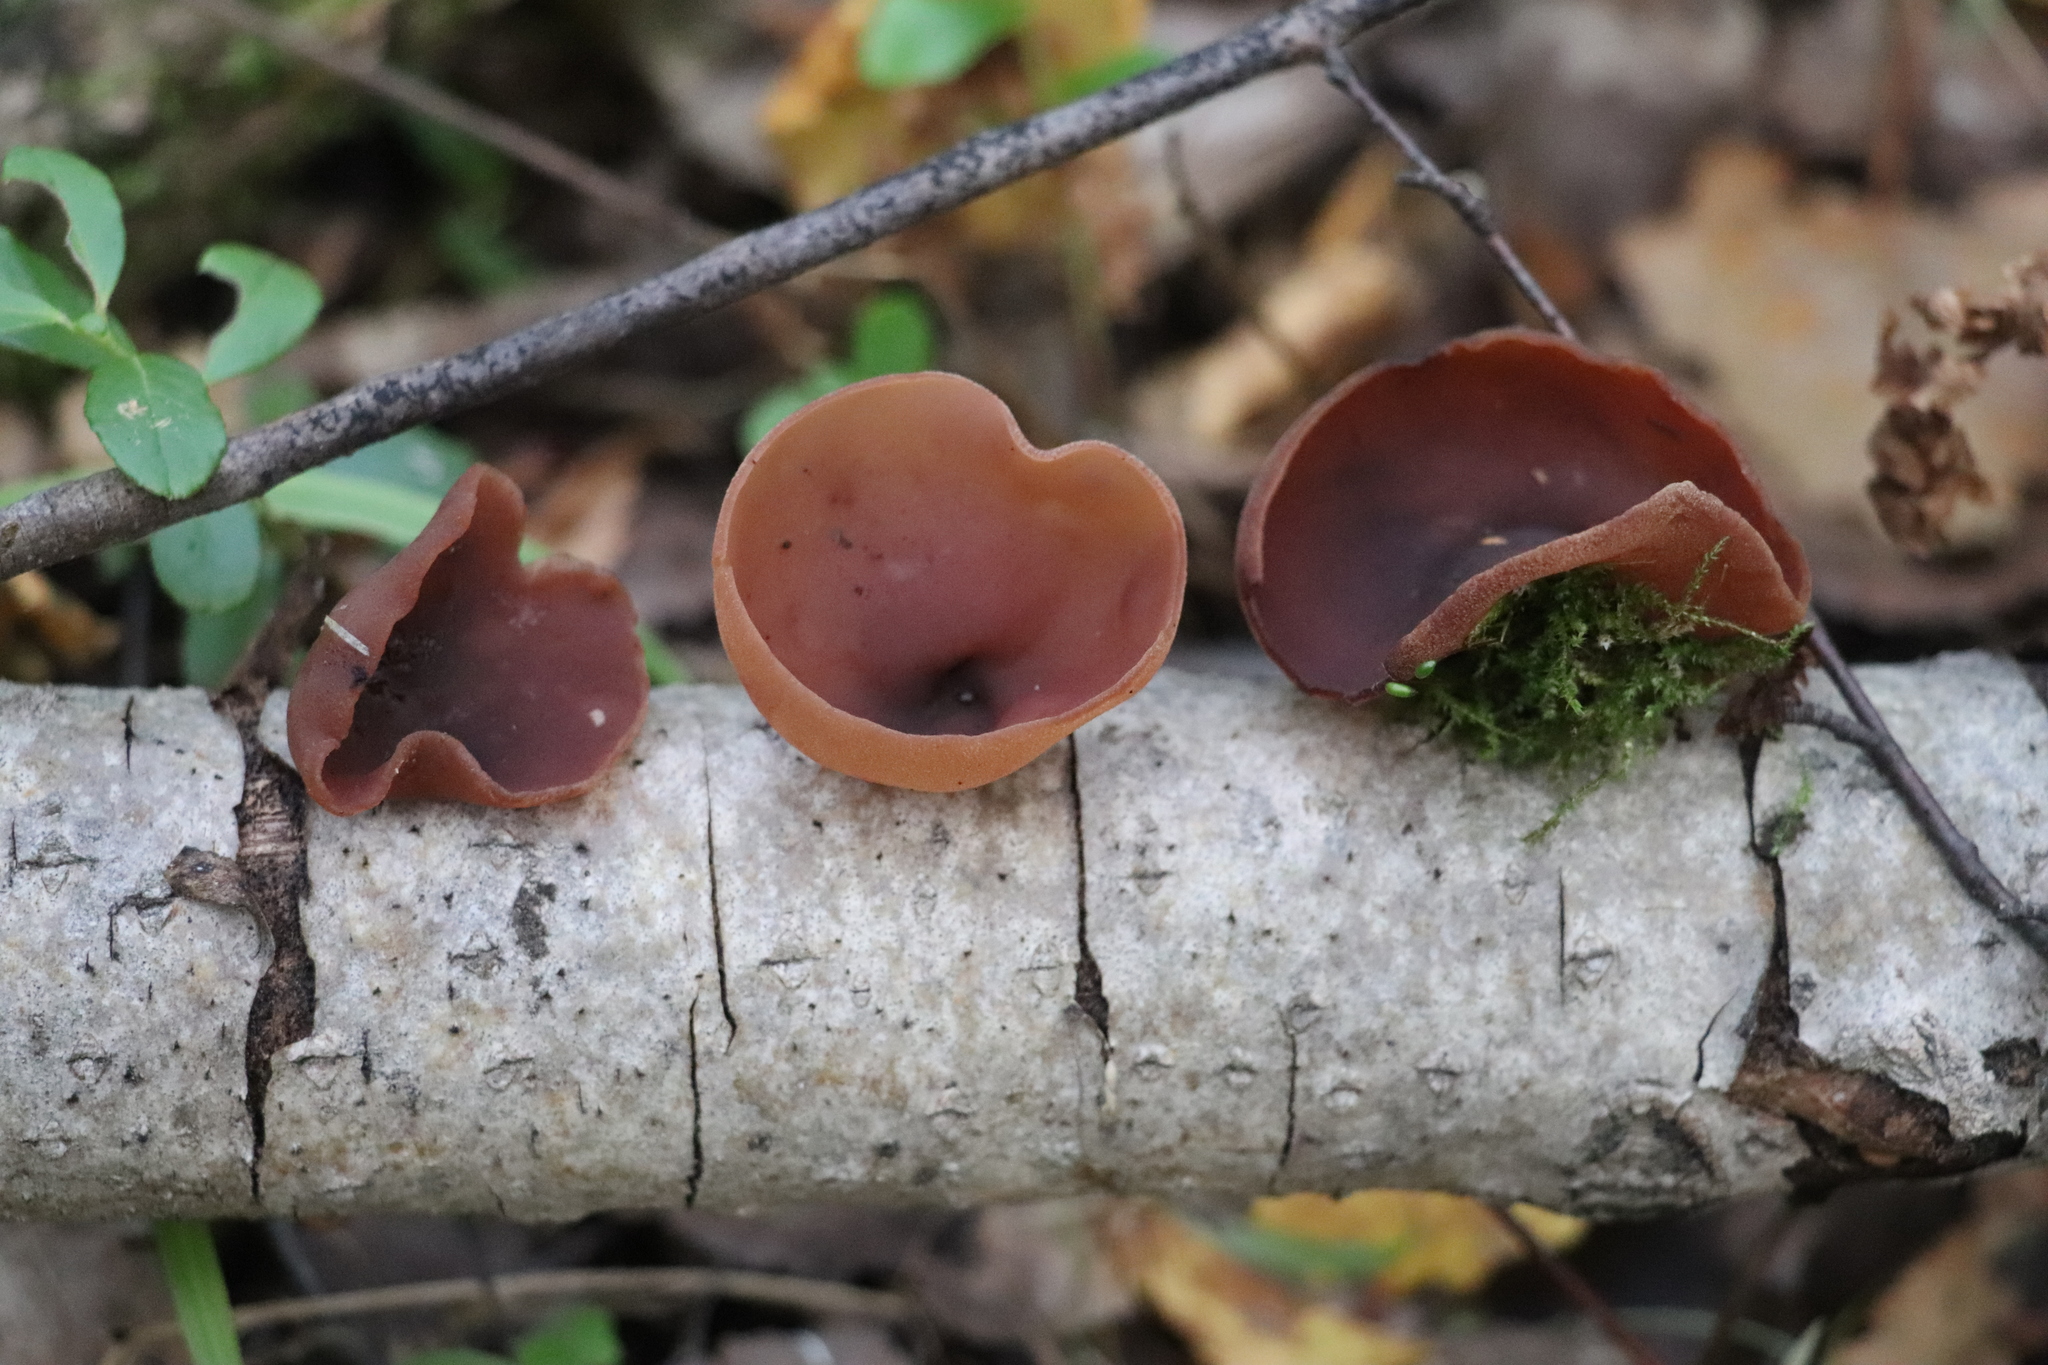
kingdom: Fungi
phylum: Ascomycota
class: Pezizomycetes
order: Pezizales
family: Pezizaceae
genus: Legaliana
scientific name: Legaliana badia
